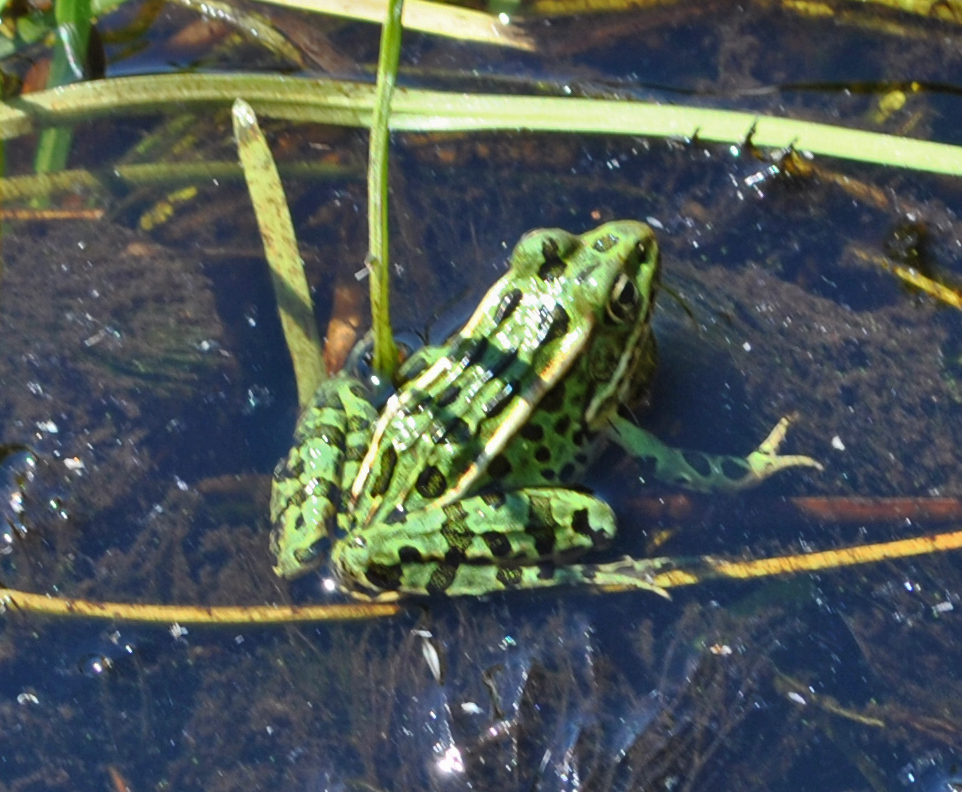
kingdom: Animalia
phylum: Chordata
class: Amphibia
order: Anura
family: Ranidae
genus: Lithobates
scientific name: Lithobates pipiens
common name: Northern leopard frog
